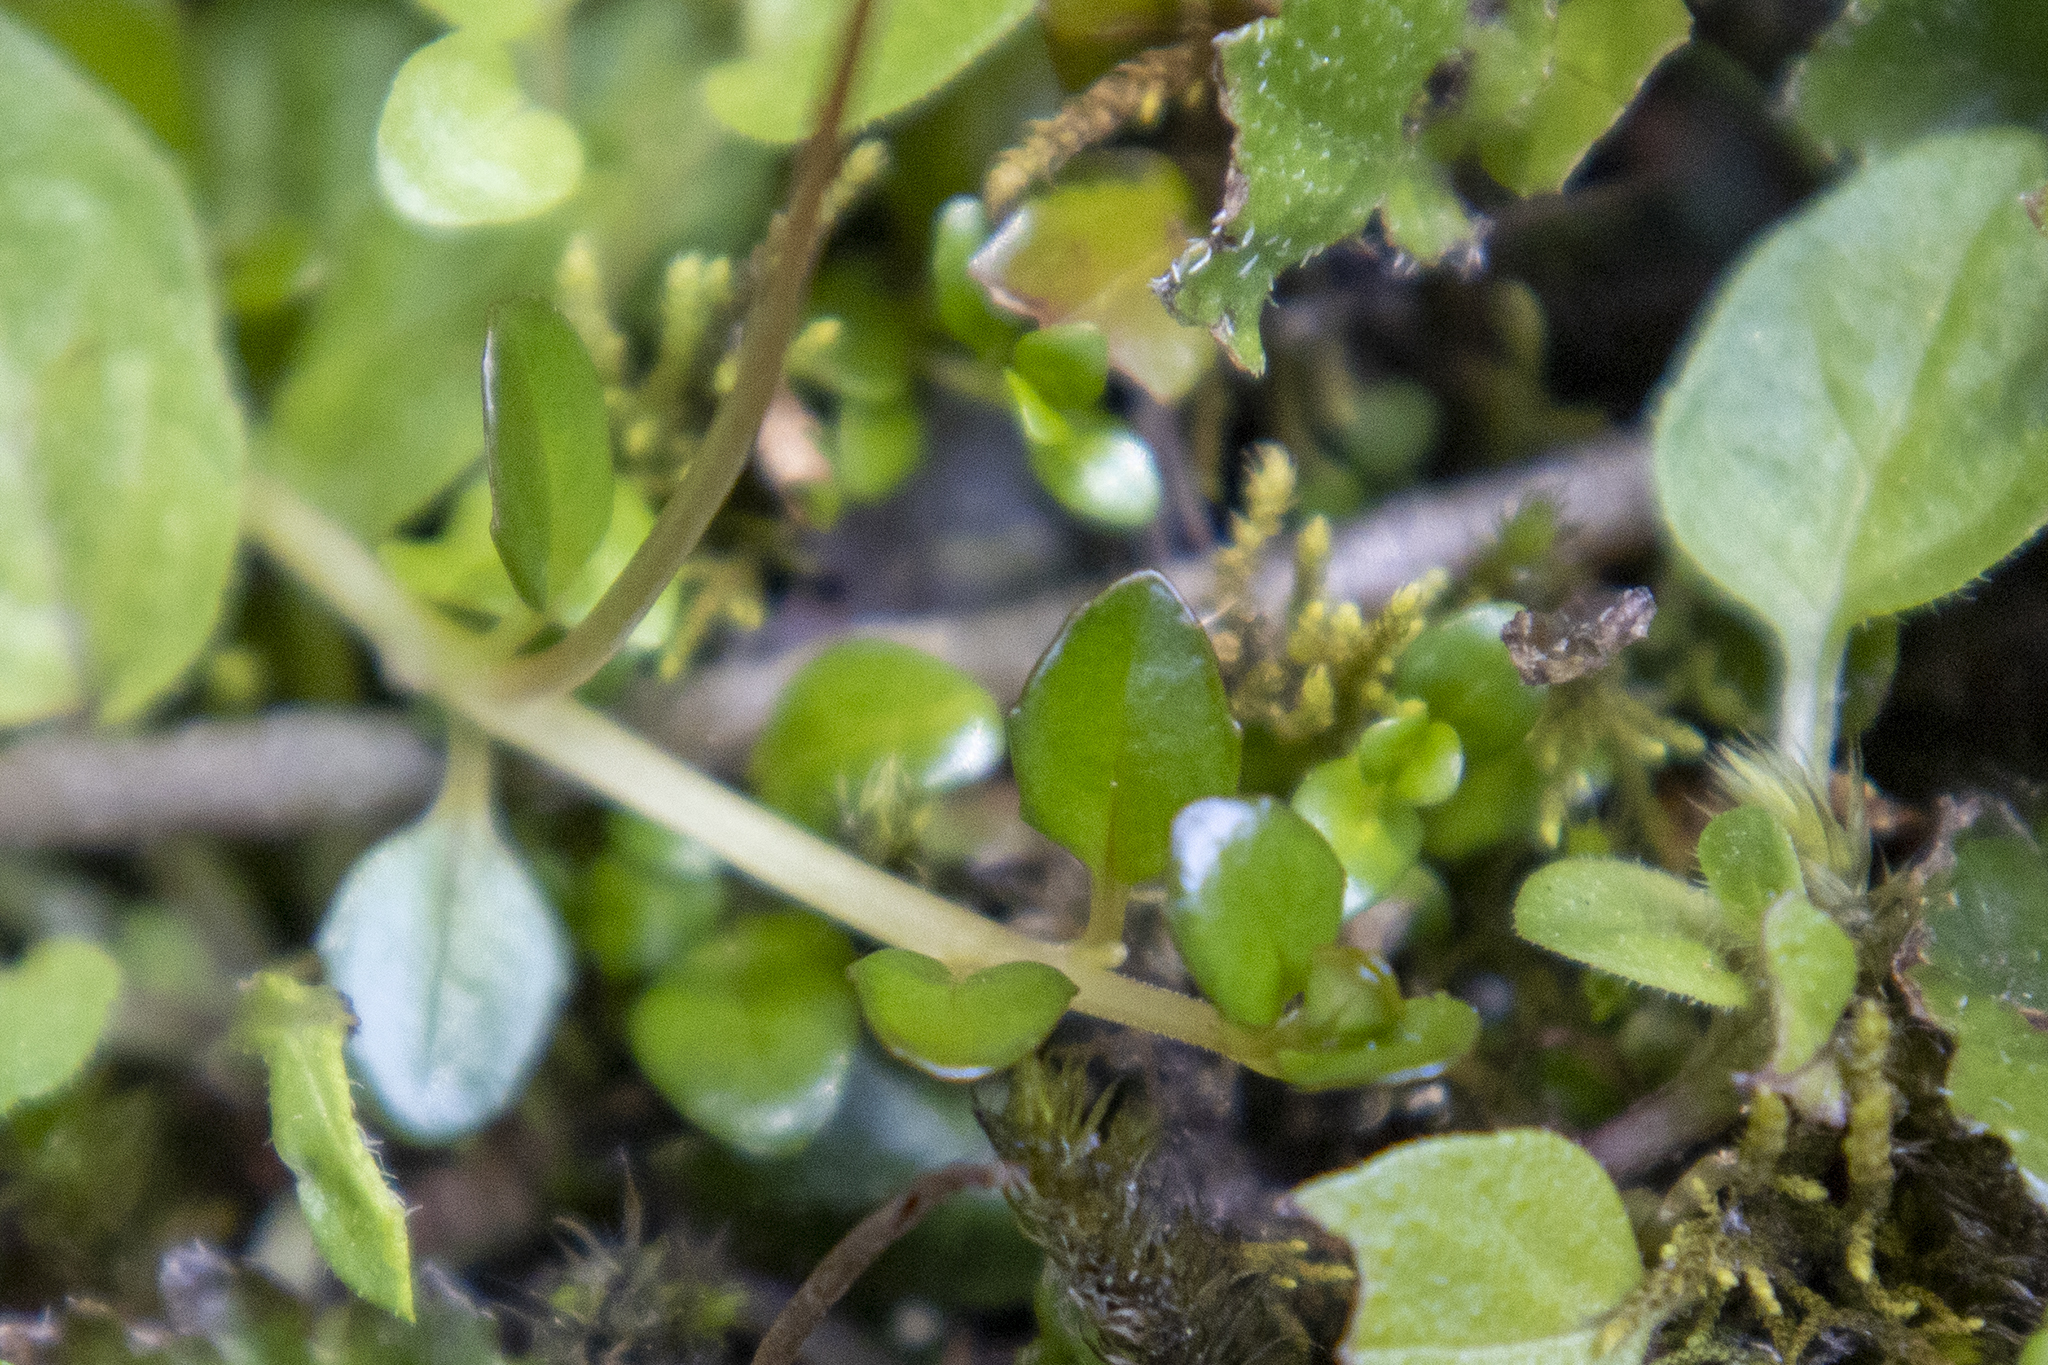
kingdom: Plantae
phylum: Tracheophyta
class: Magnoliopsida
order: Myrtales
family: Onagraceae
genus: Epilobium
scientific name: Epilobium brunnescens
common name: New zealand willowherb
